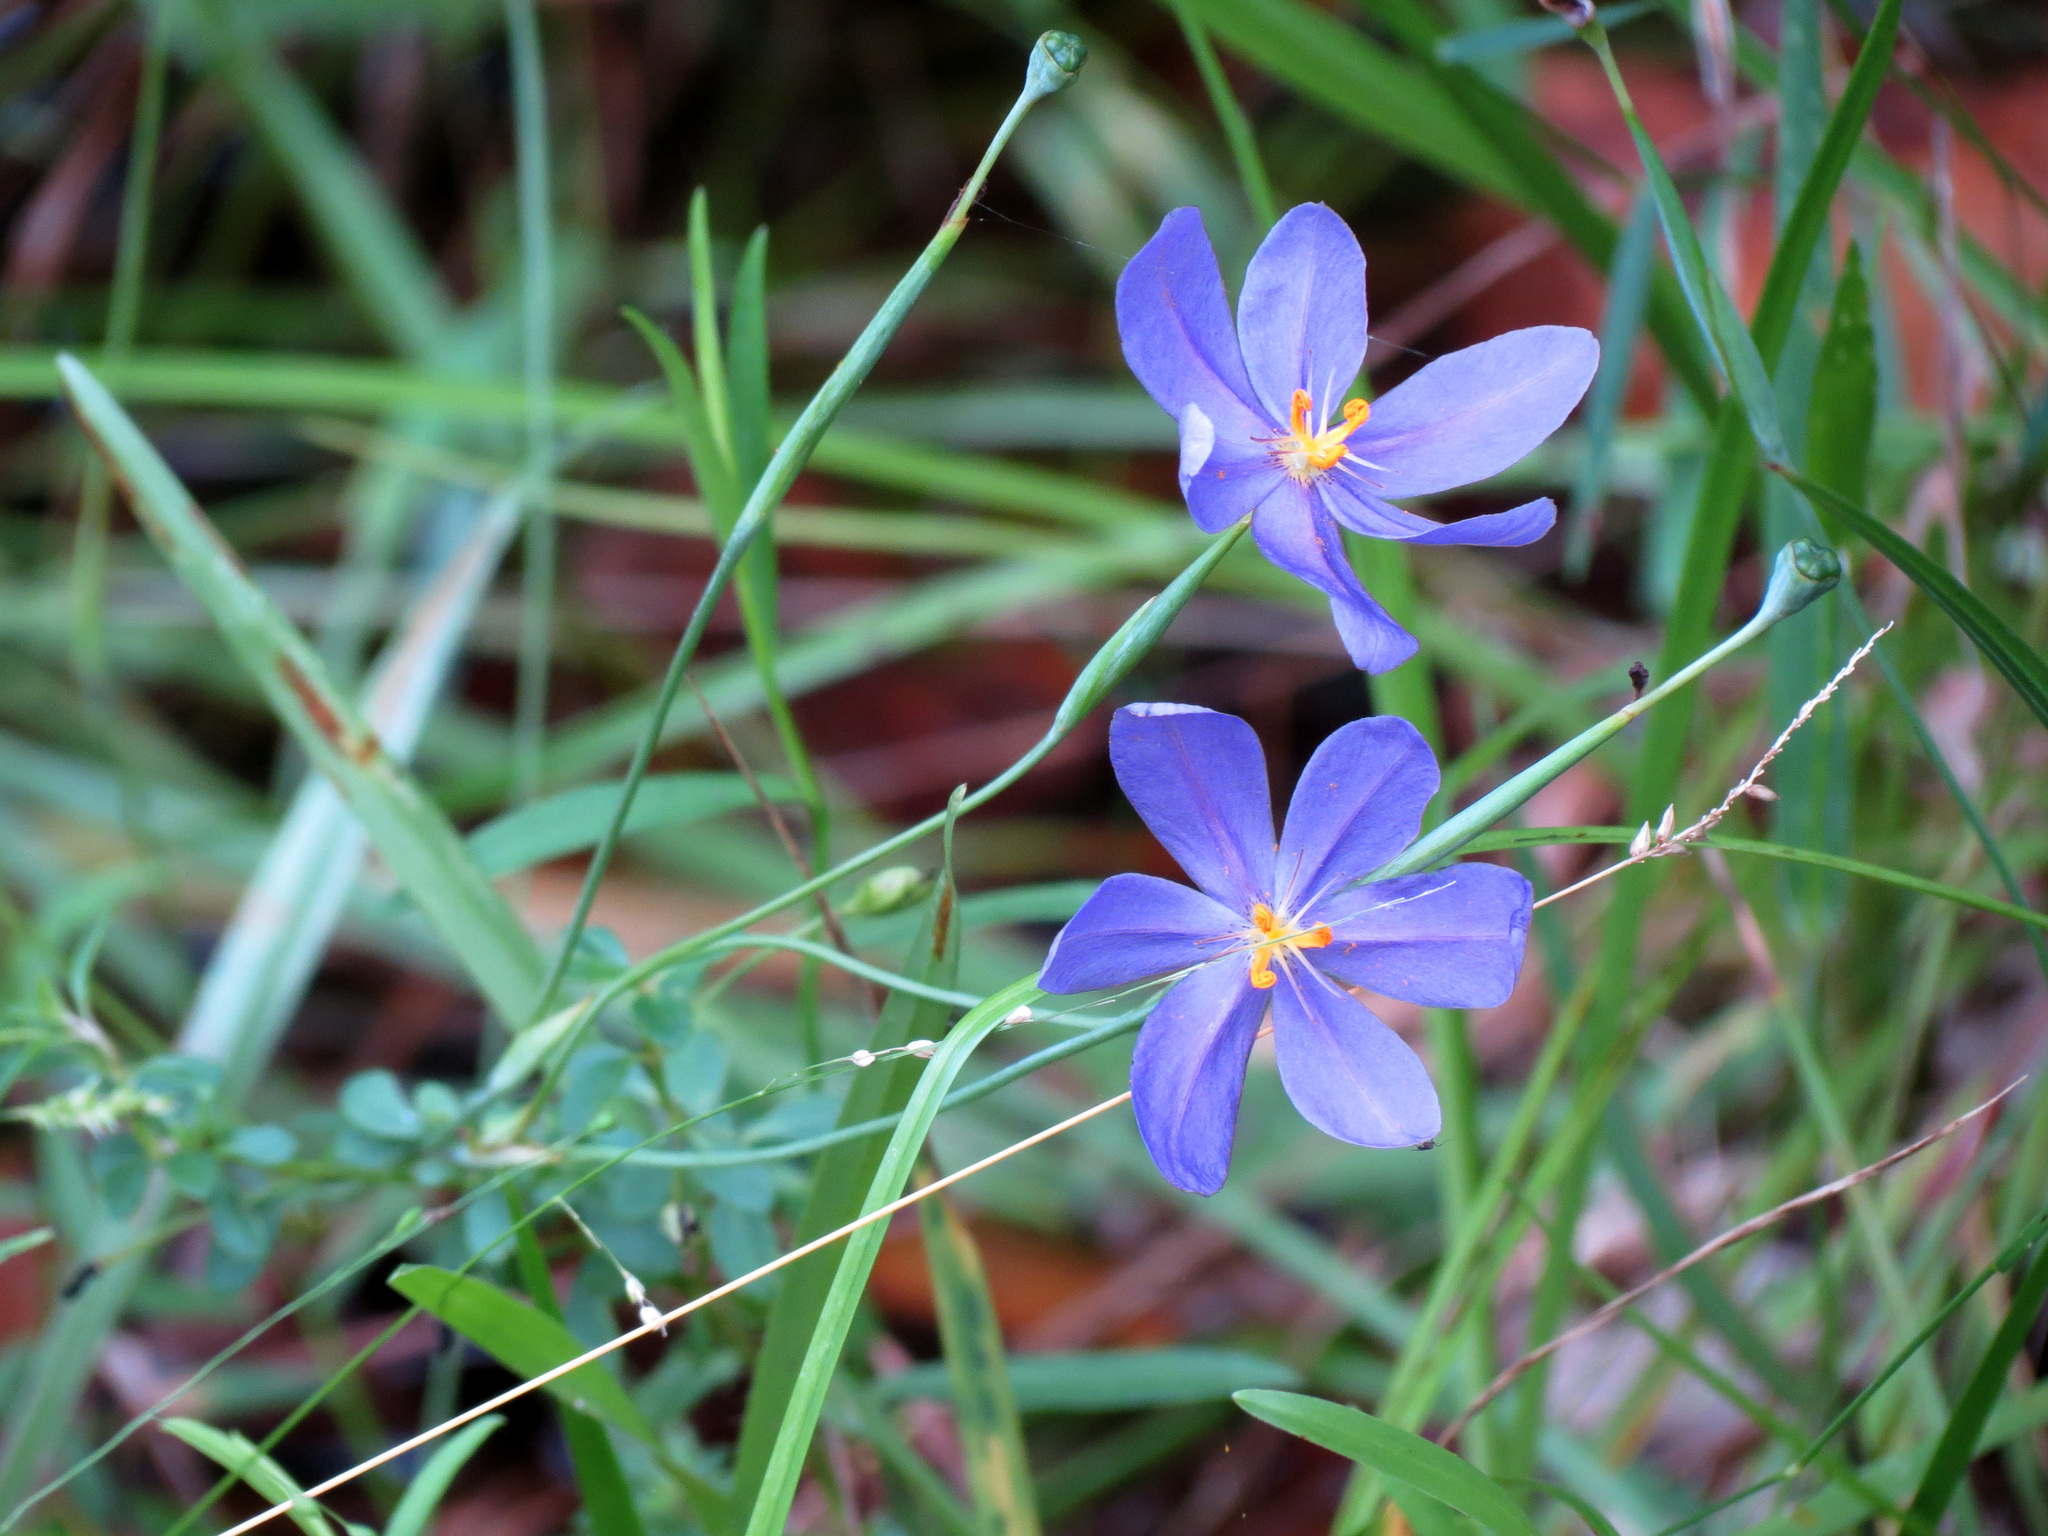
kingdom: Plantae
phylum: Tracheophyta
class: Liliopsida
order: Asparagales
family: Iridaceae
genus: Nemastylis
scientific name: Nemastylis floridana
